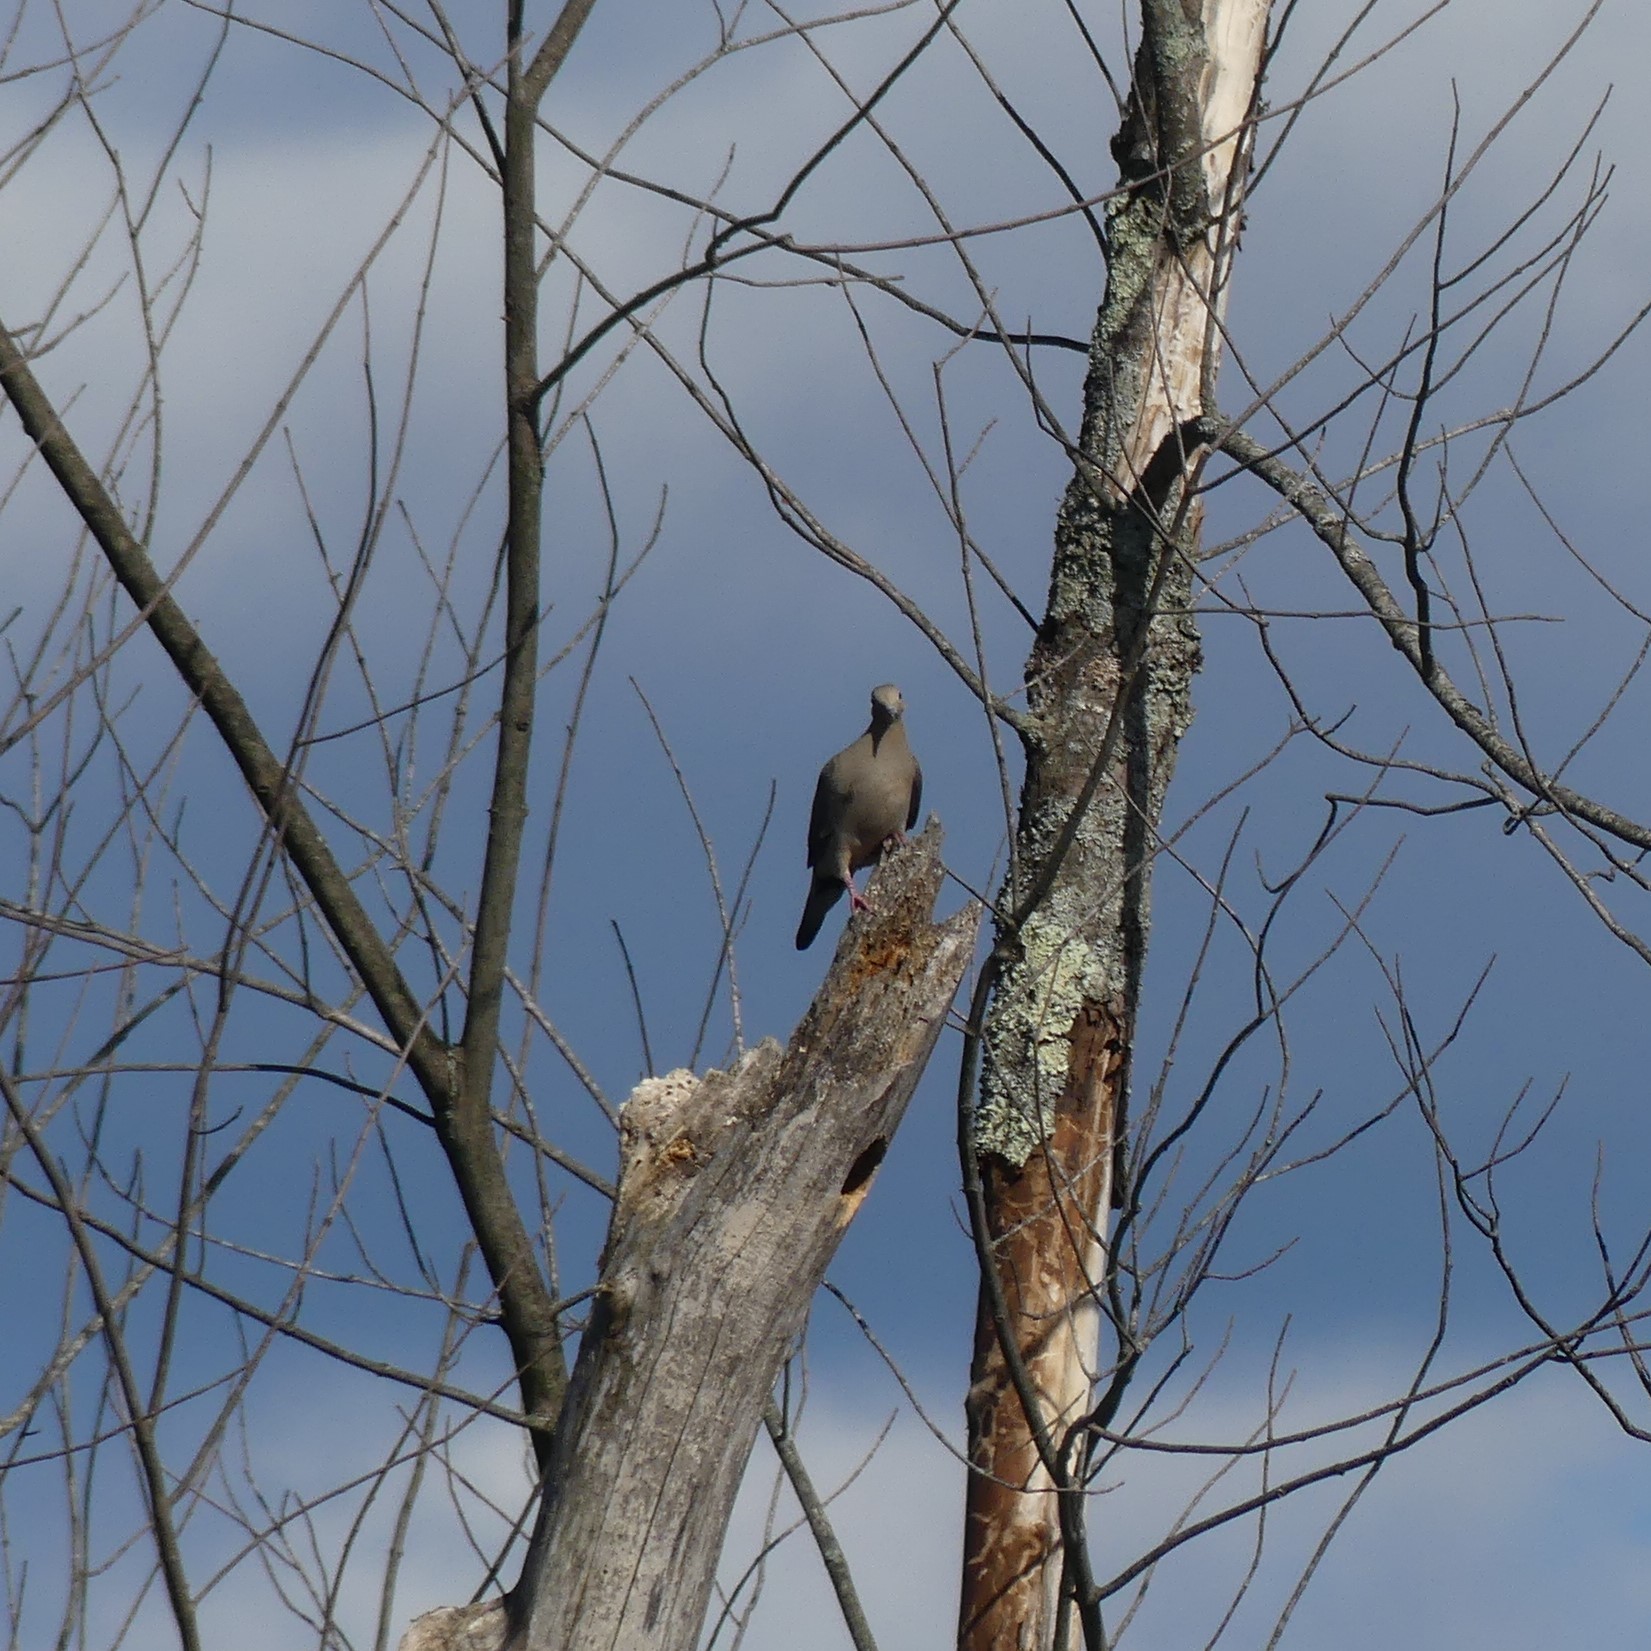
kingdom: Animalia
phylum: Chordata
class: Aves
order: Columbiformes
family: Columbidae
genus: Zenaida
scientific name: Zenaida macroura
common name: Mourning dove
